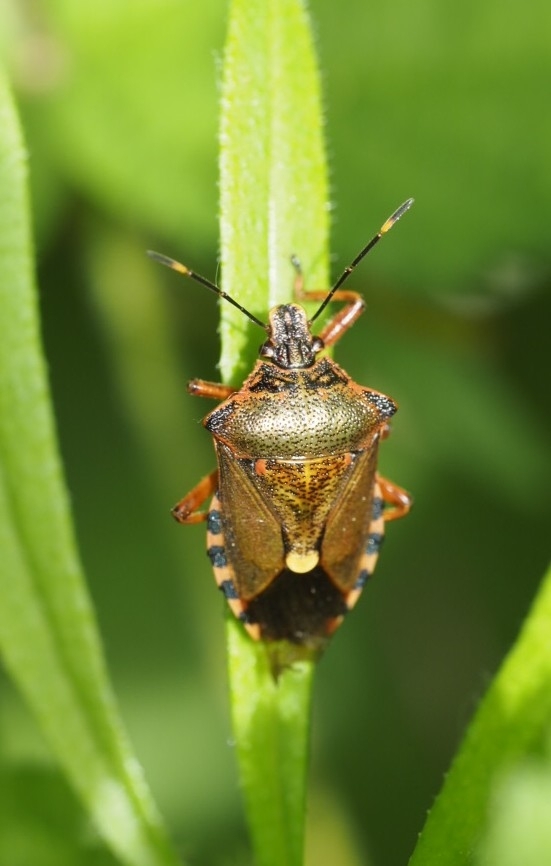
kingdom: Animalia
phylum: Arthropoda
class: Insecta
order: Hemiptera
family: Pentatomidae
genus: Pinthaeus
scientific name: Pinthaeus sanguinipes
